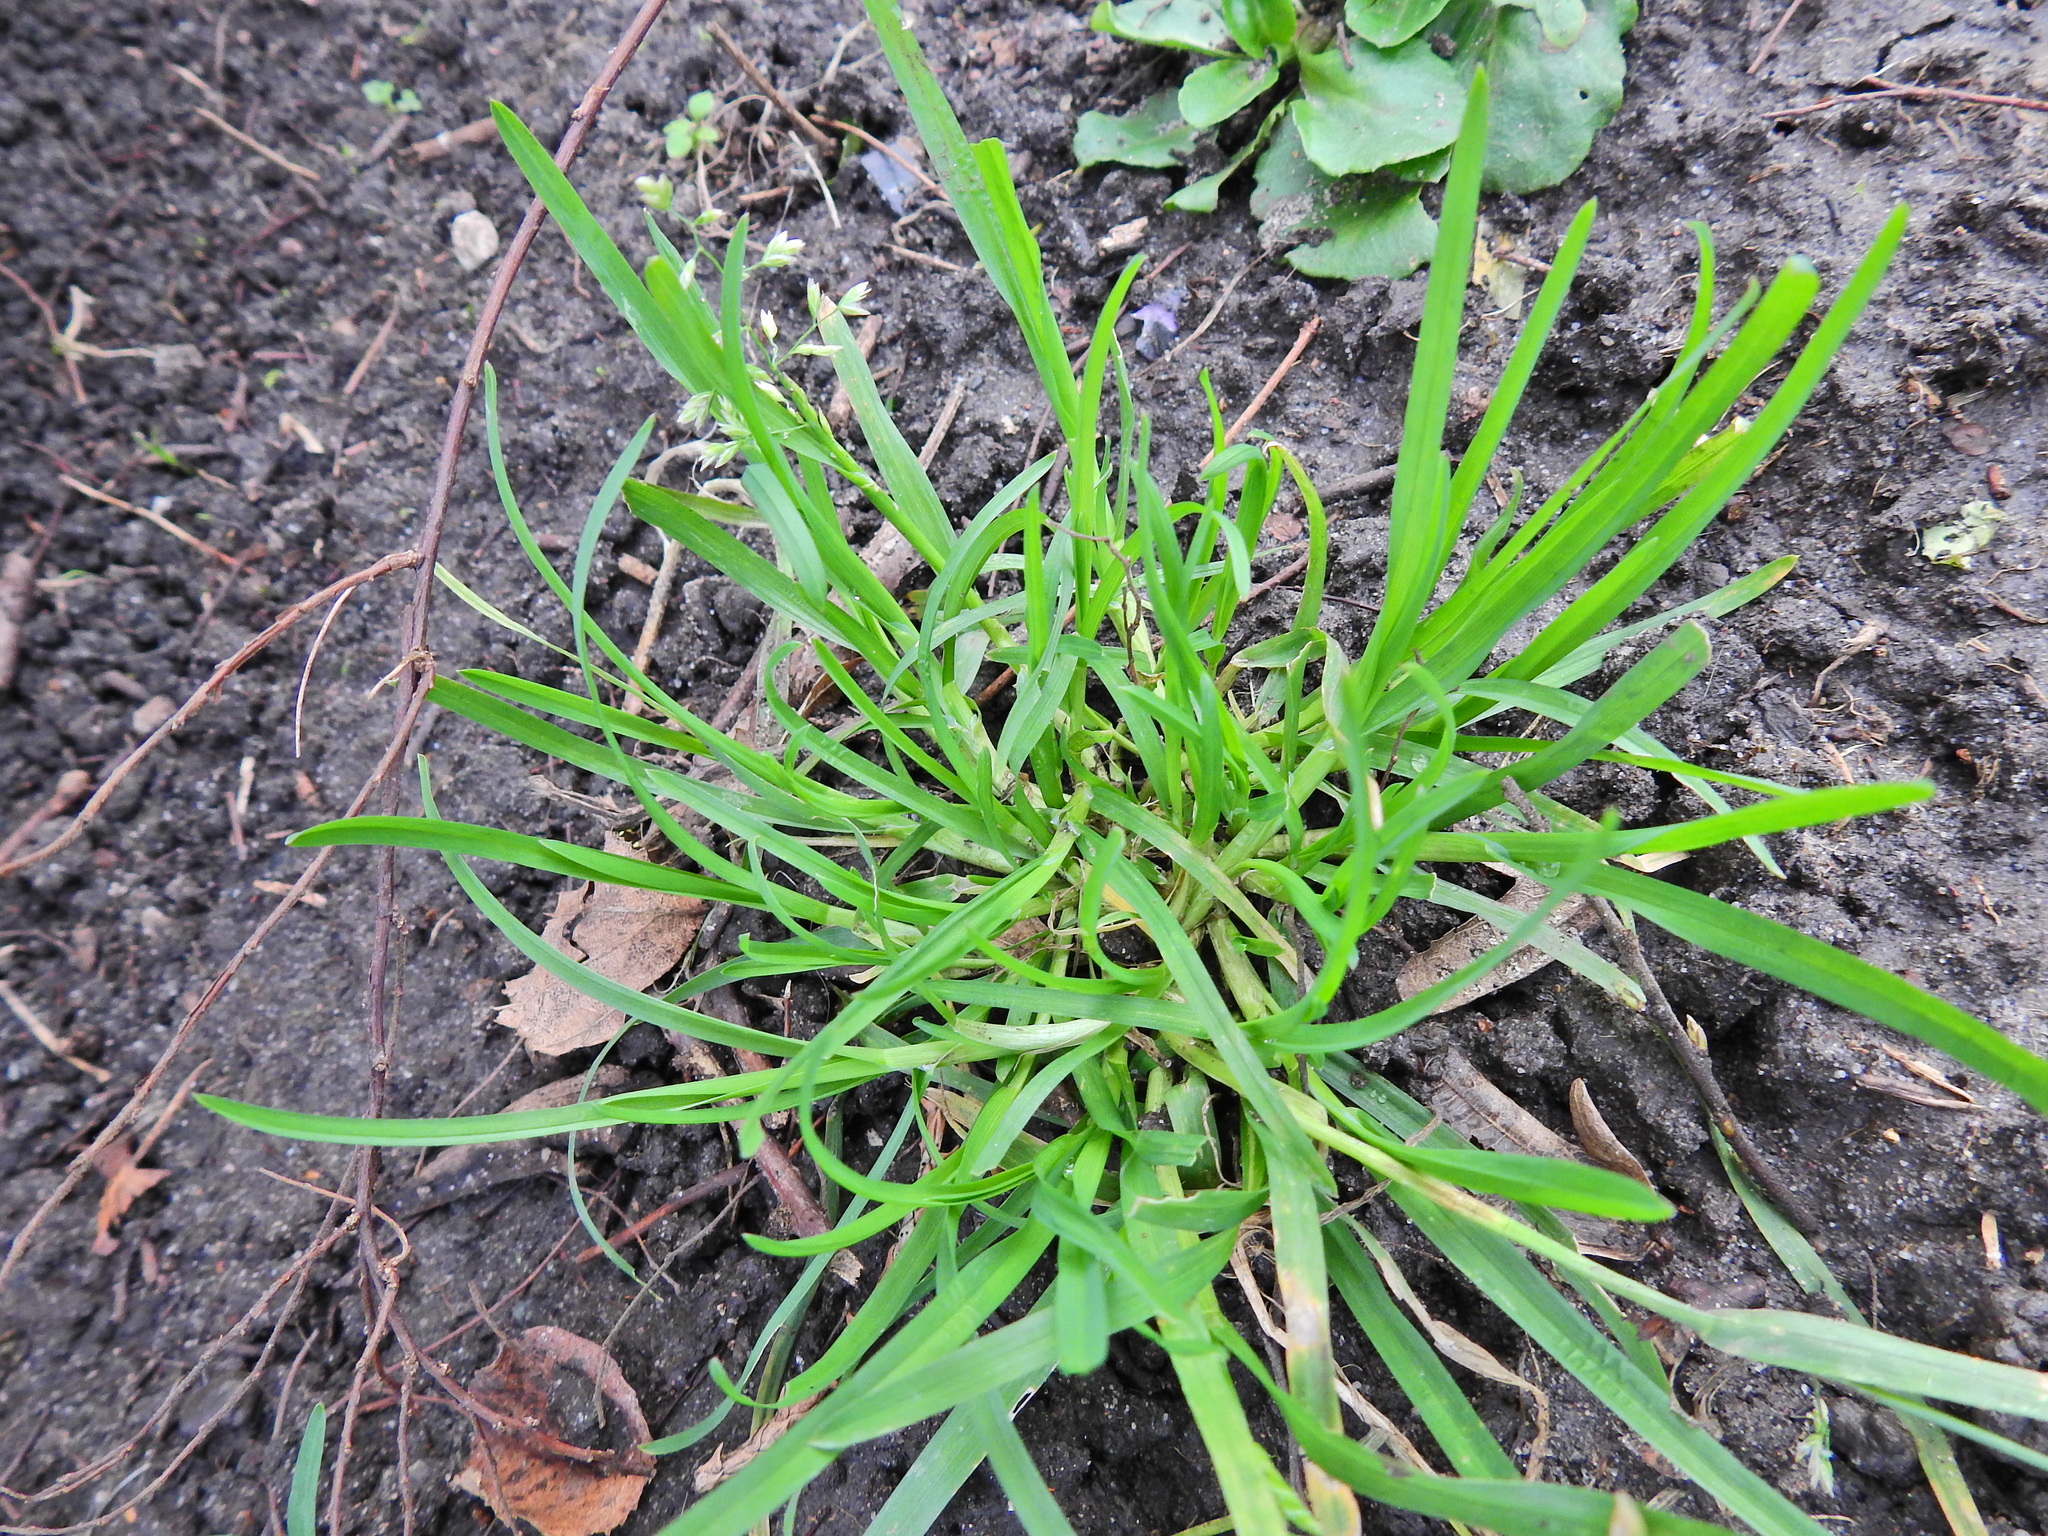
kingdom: Plantae
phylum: Tracheophyta
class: Liliopsida
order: Poales
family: Poaceae
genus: Poa
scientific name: Poa annua
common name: Annual bluegrass
